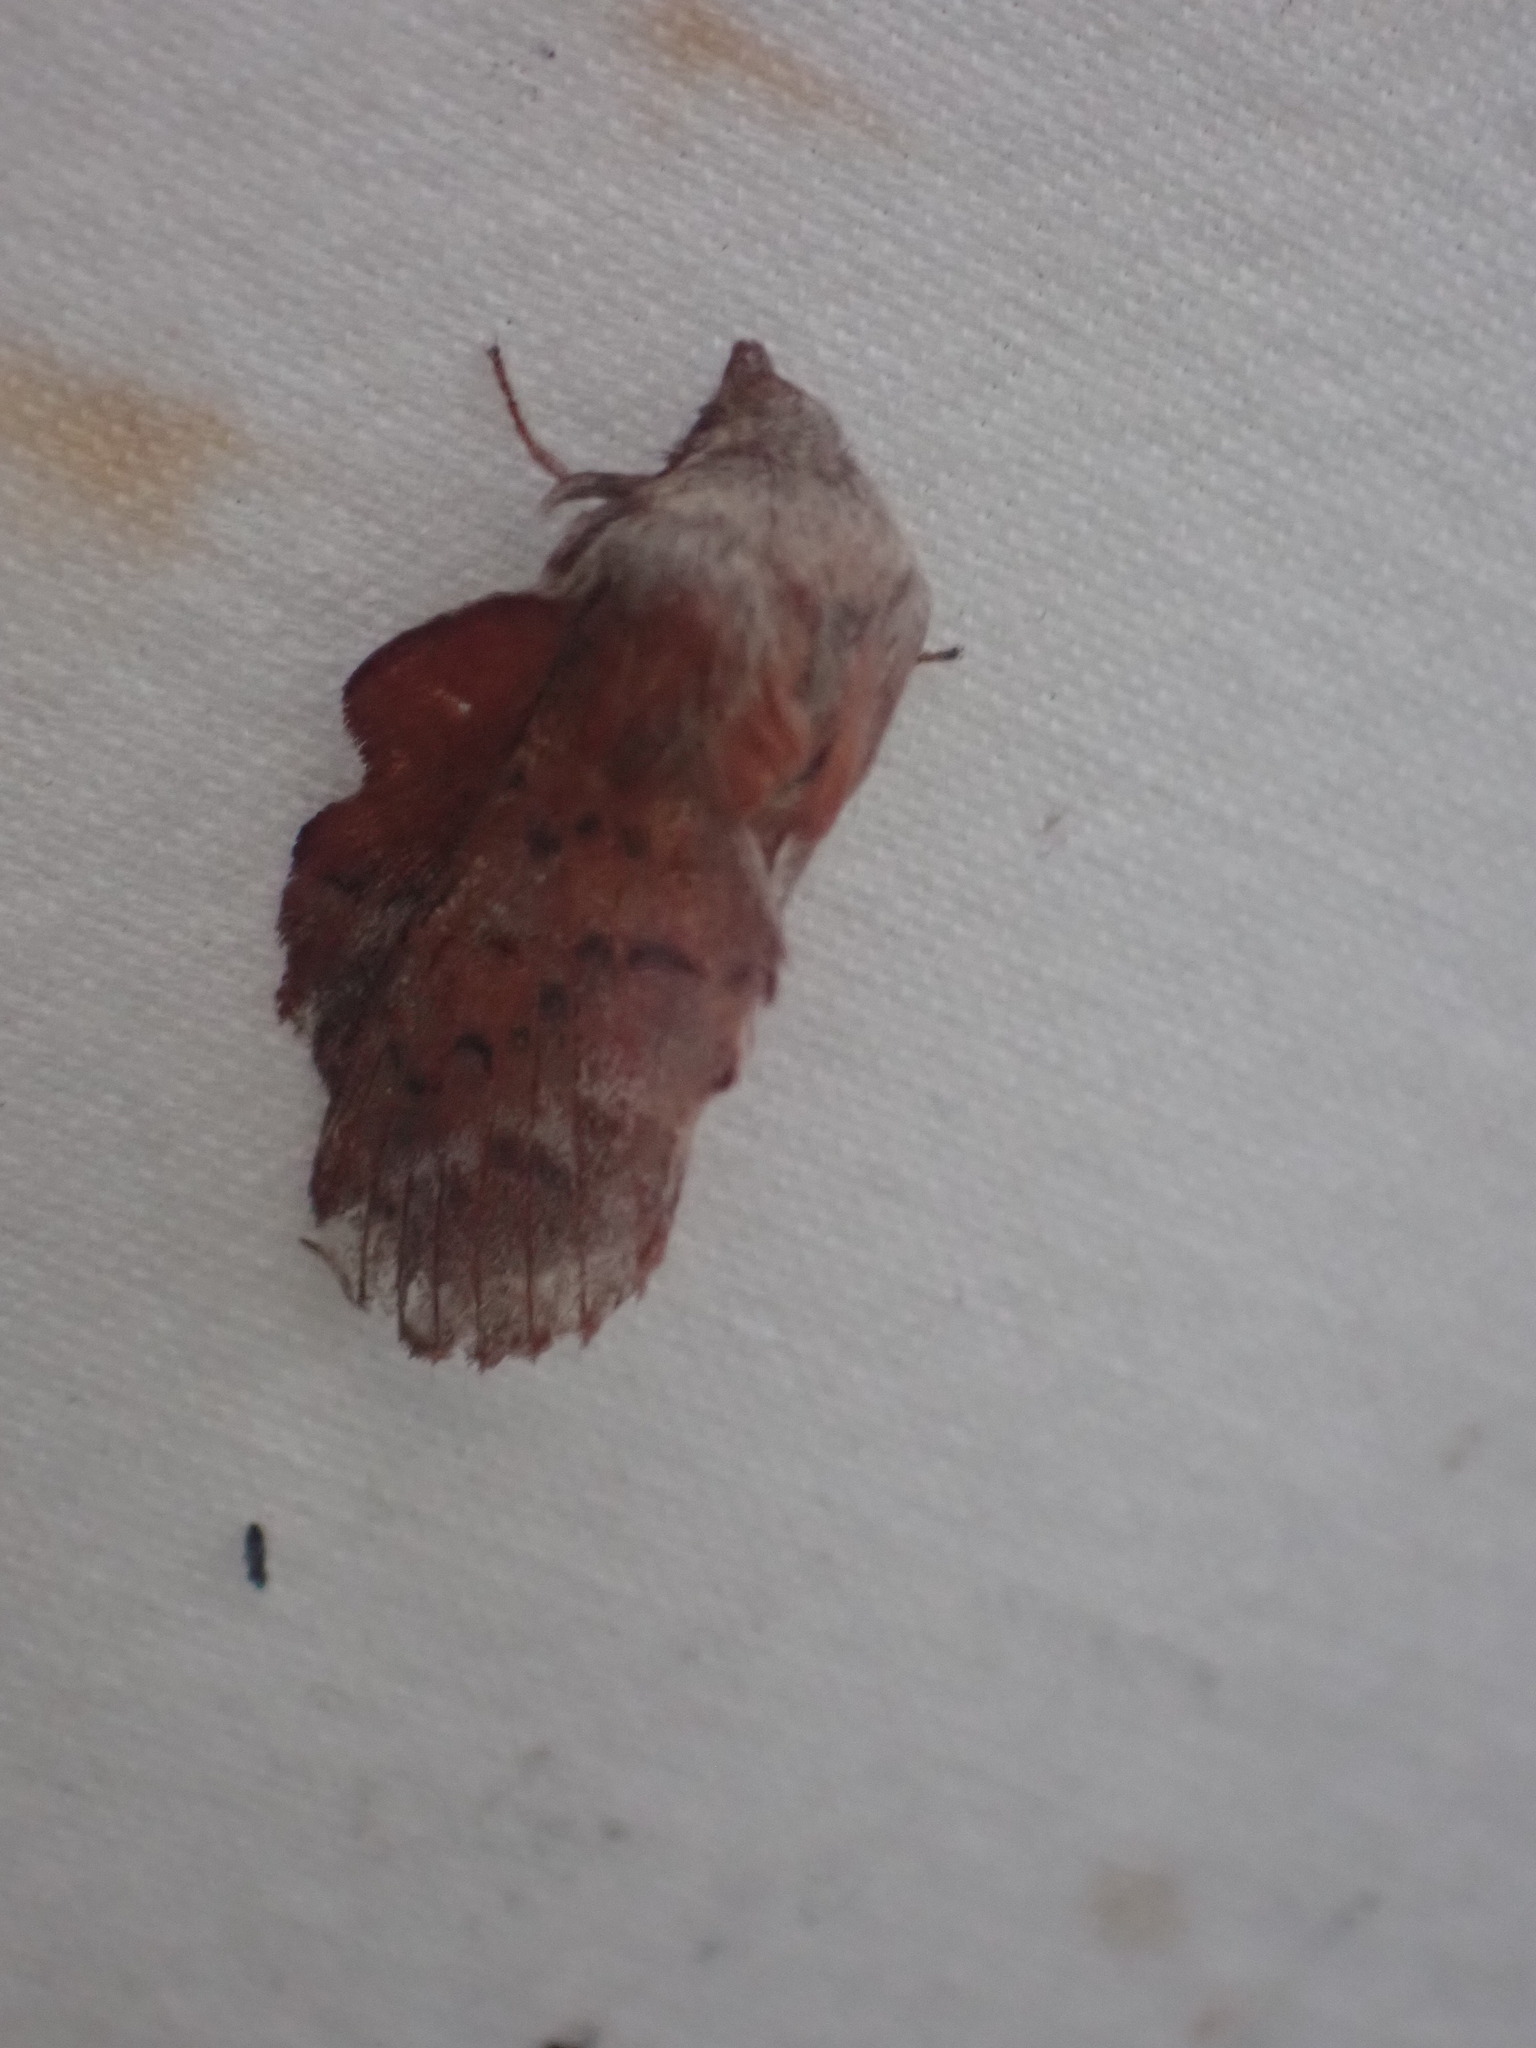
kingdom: Animalia
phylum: Arthropoda
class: Insecta
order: Lepidoptera
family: Lasiocampidae
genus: Phyllodesma
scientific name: Phyllodesma americana
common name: American lappet moth
